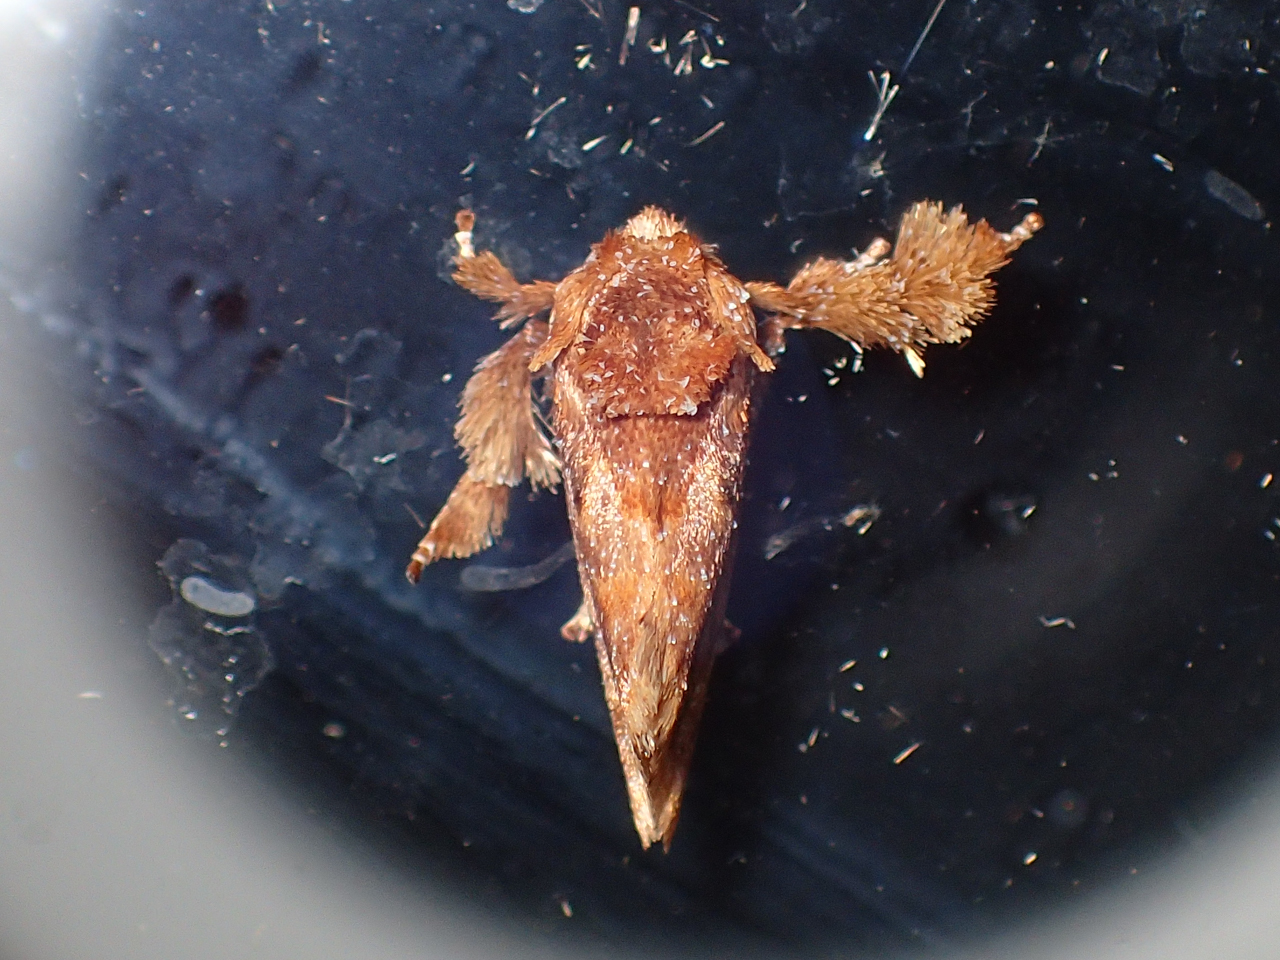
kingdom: Animalia
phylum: Arthropoda
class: Insecta
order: Lepidoptera
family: Limacodidae
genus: Isochaetes
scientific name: Isochaetes beutenmuelleri
